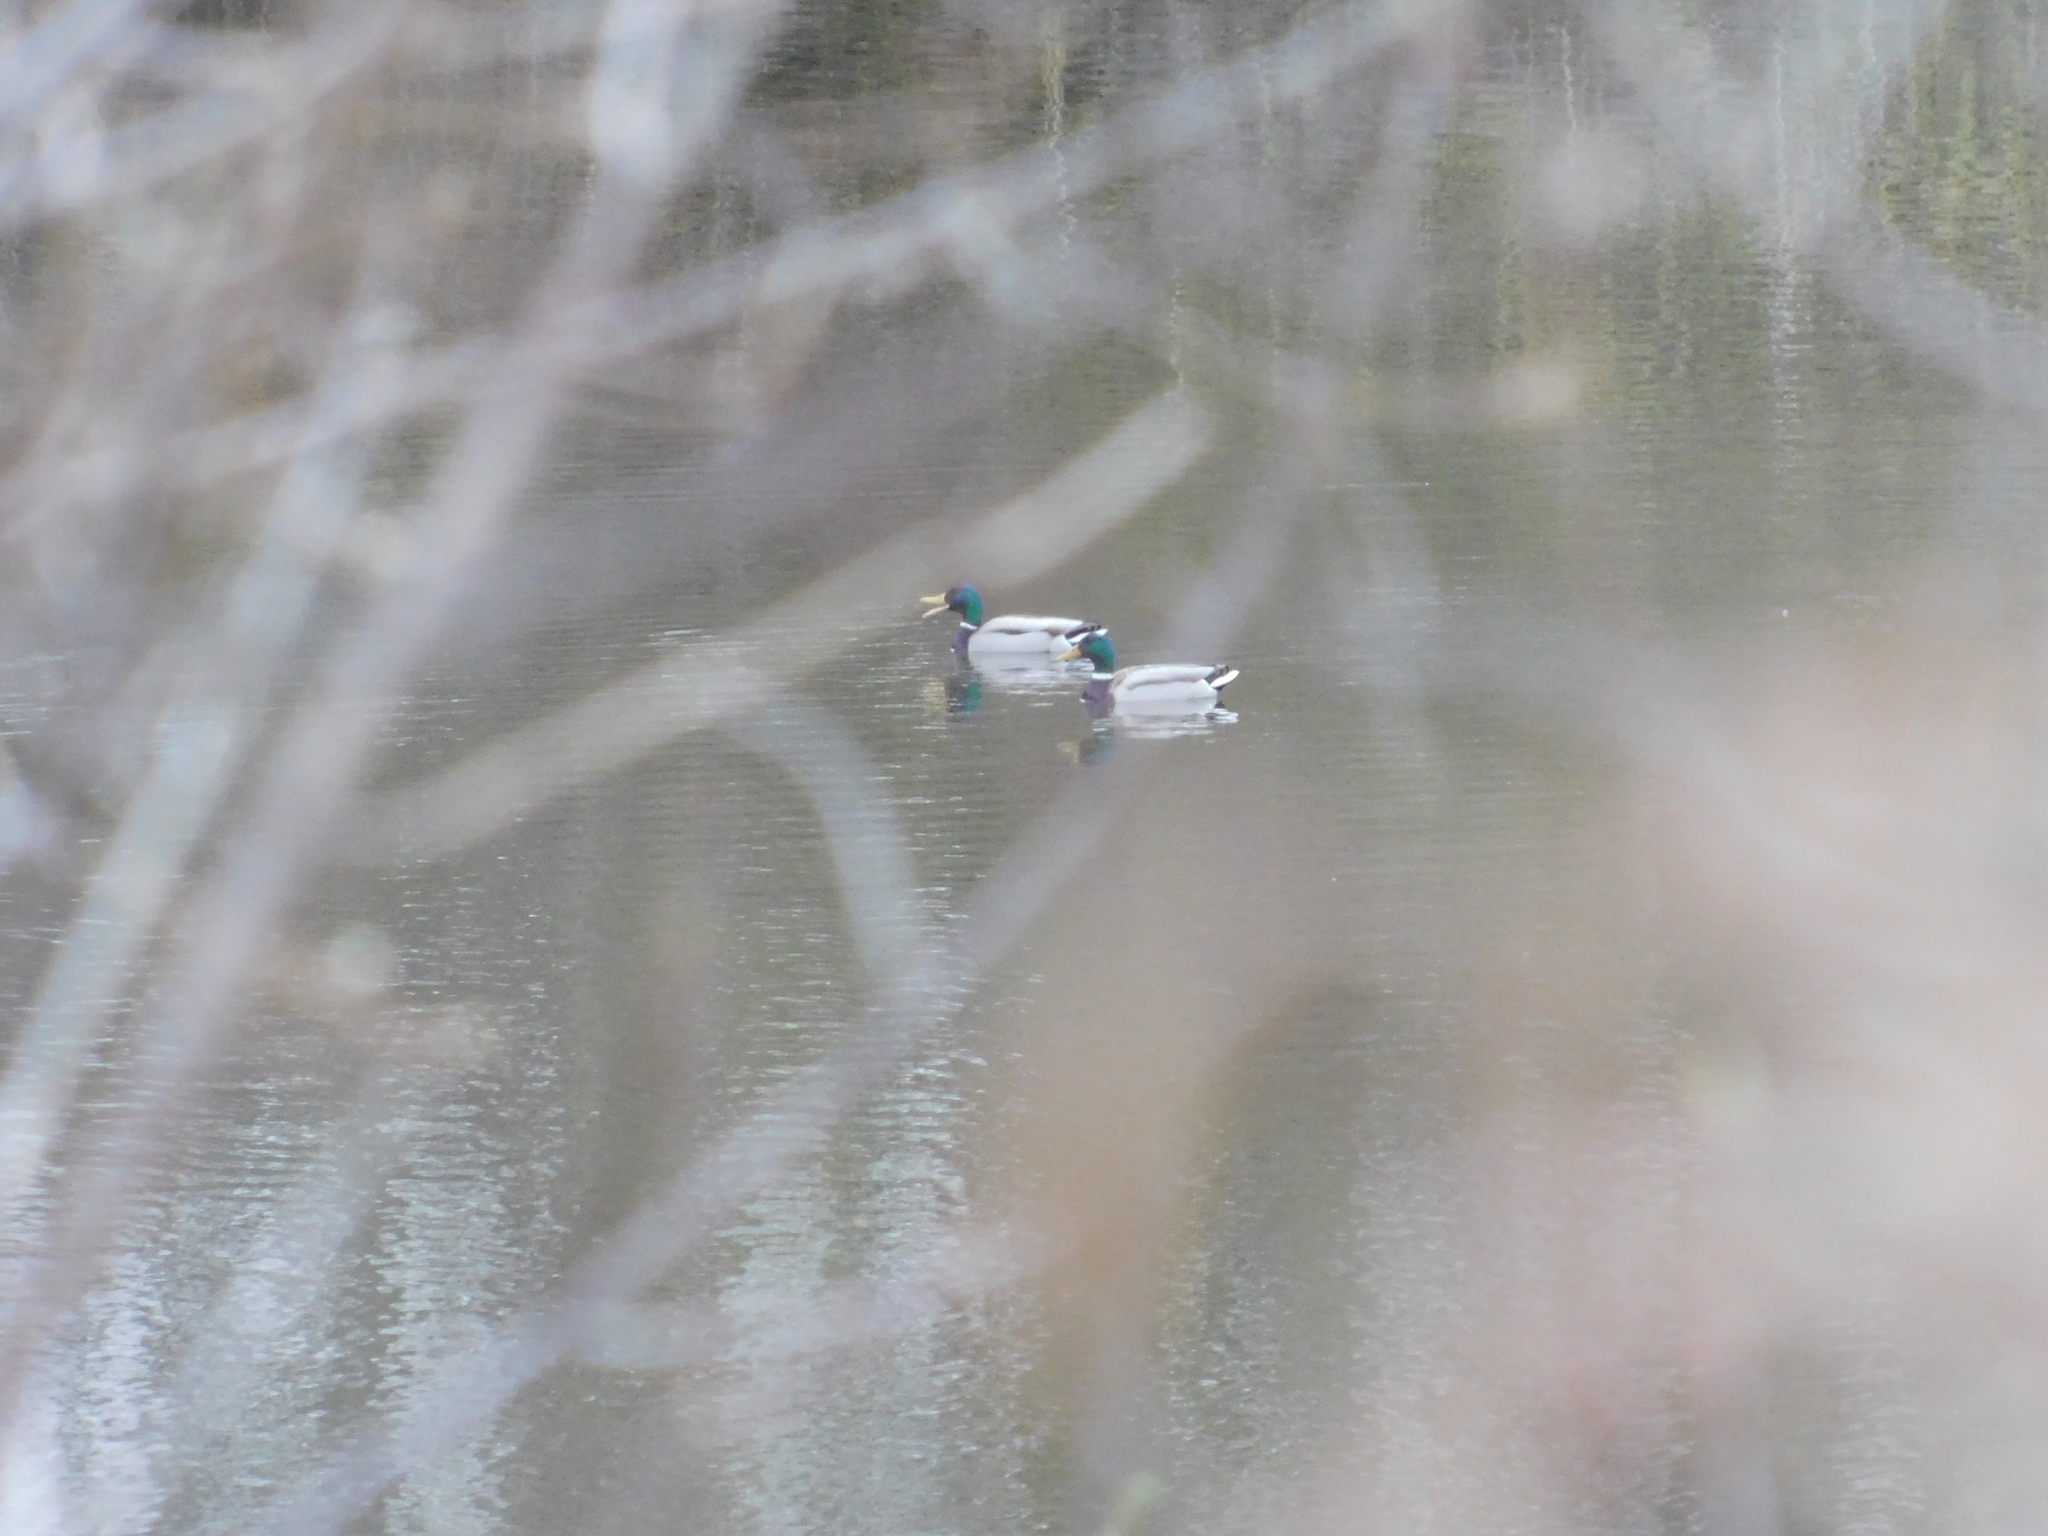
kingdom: Animalia
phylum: Chordata
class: Aves
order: Anseriformes
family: Anatidae
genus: Anas
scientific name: Anas platyrhynchos
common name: Mallard
